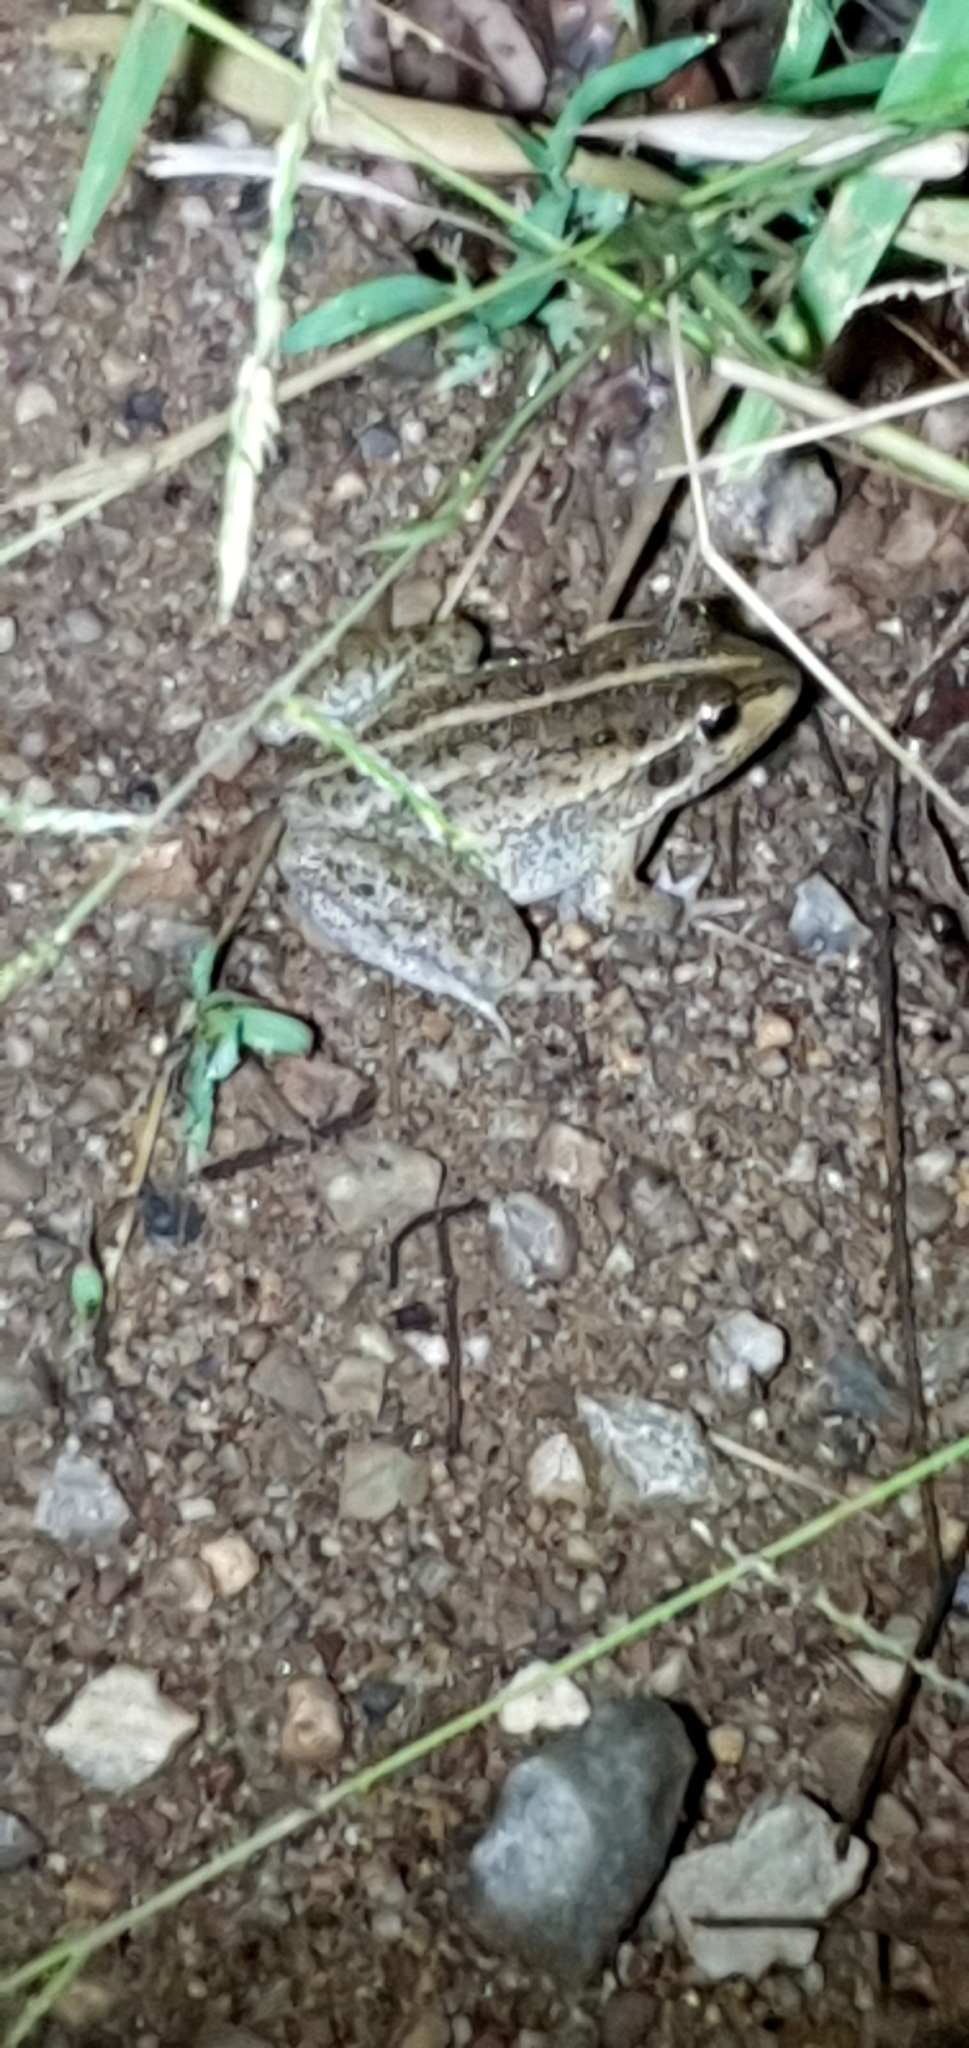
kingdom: Animalia
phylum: Chordata
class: Amphibia
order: Anura
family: Pelodryadidae
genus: Ranoidea
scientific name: Ranoidea alboguttata
